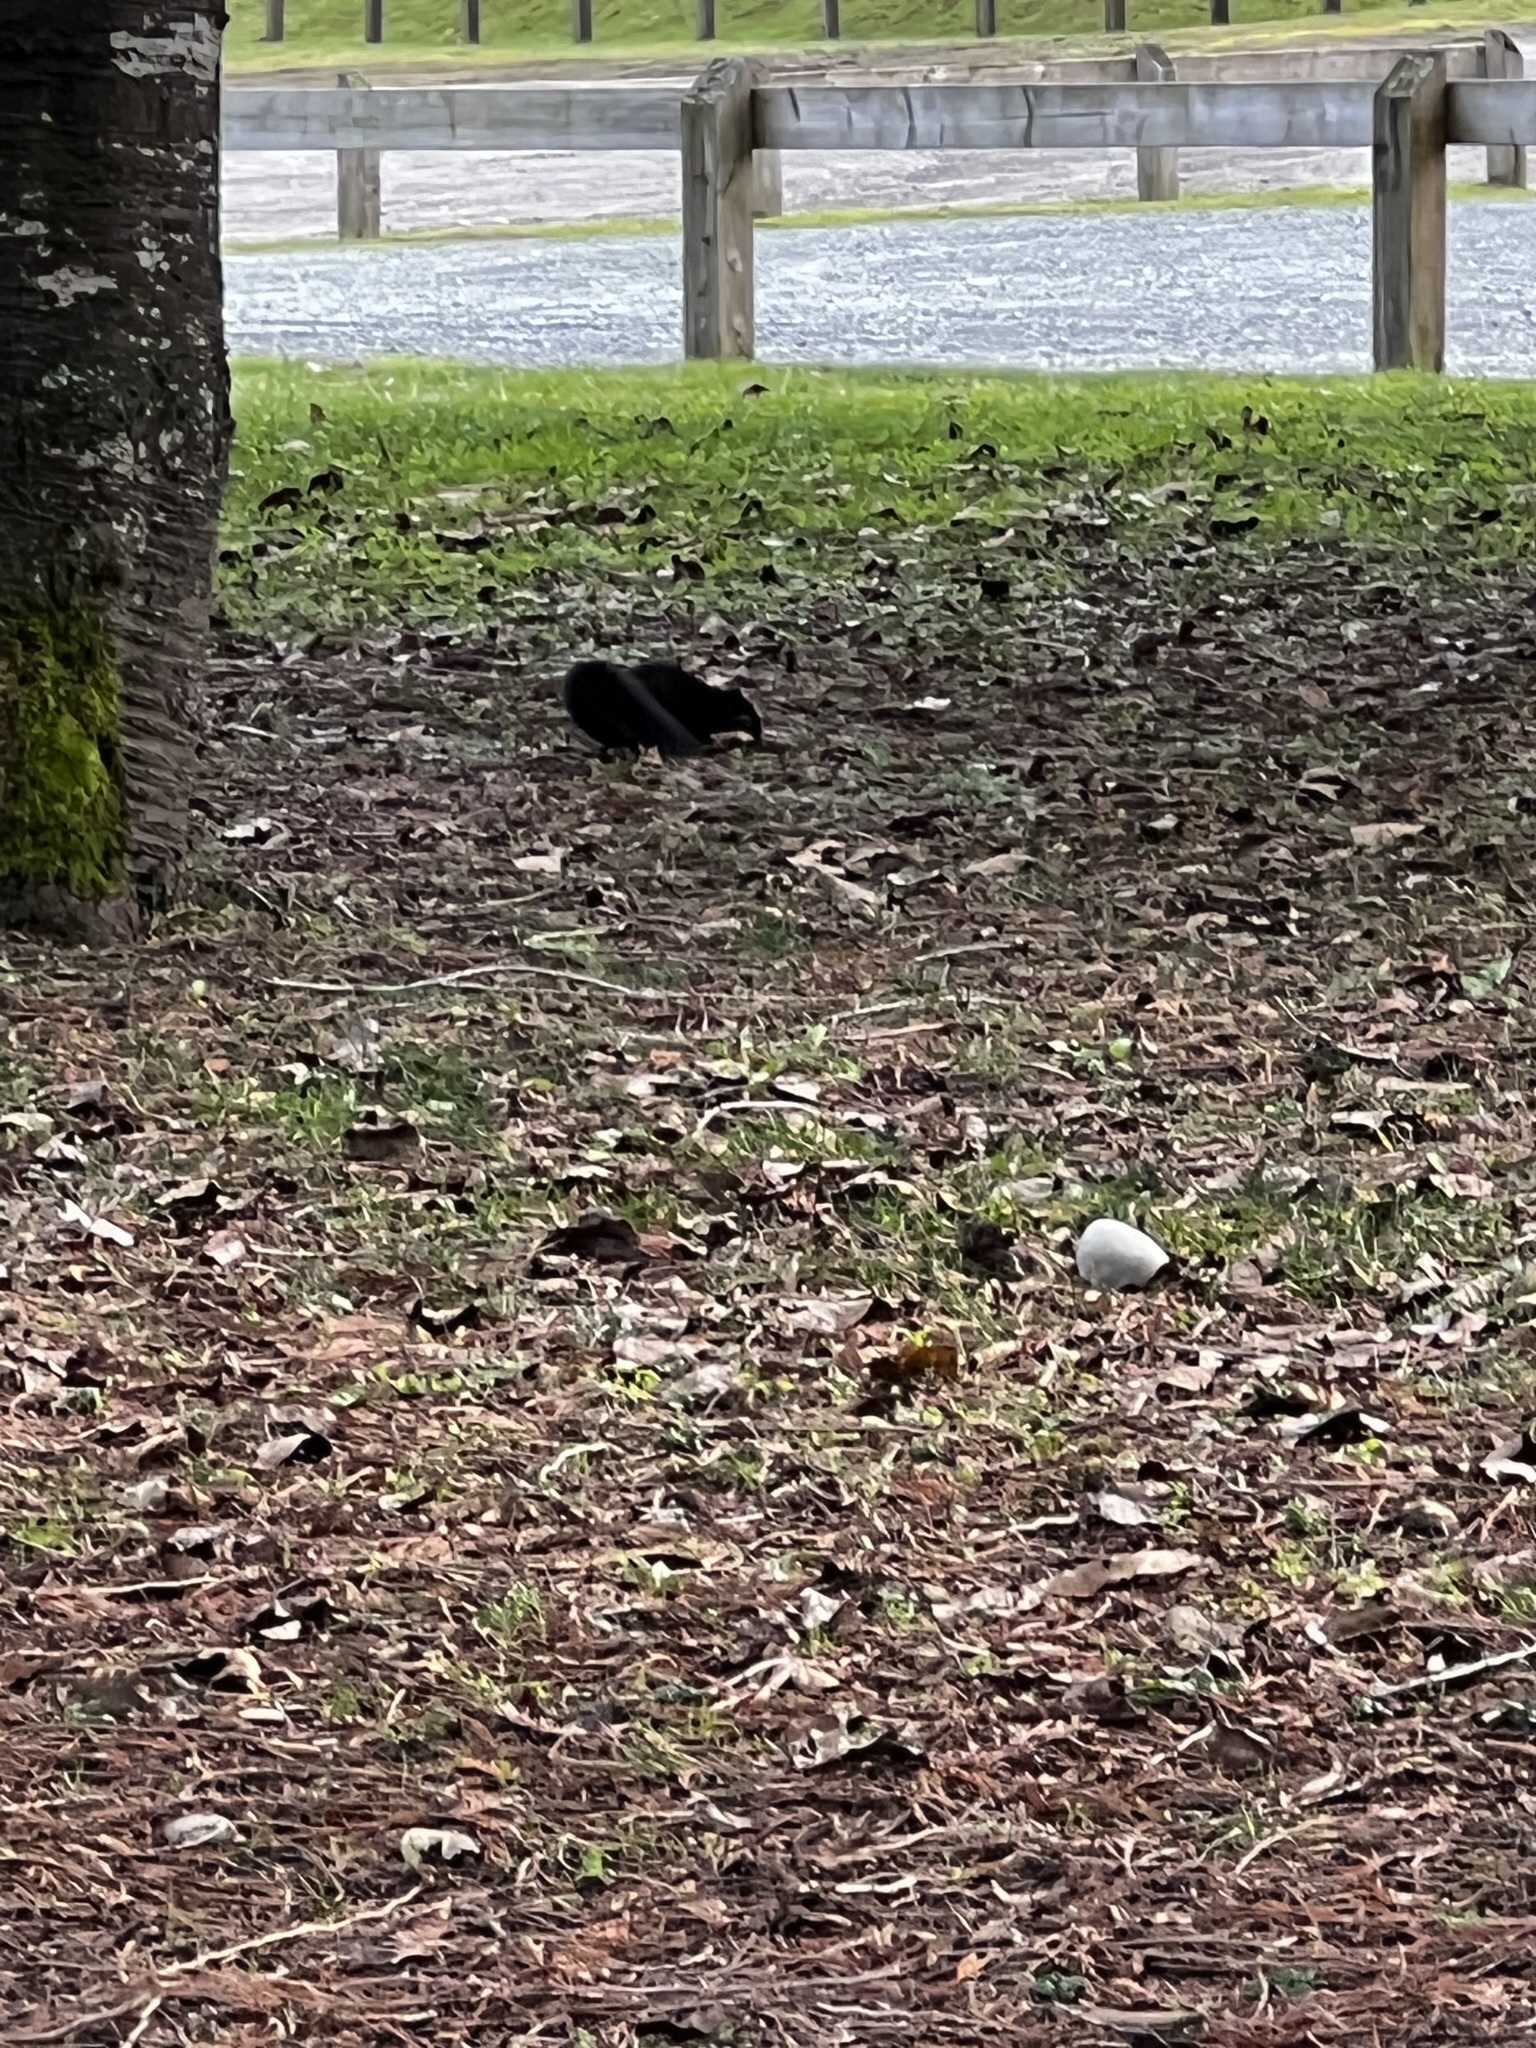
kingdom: Animalia
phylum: Chordata
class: Mammalia
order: Rodentia
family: Sciuridae
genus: Sciurus
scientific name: Sciurus carolinensis
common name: Eastern gray squirrel
